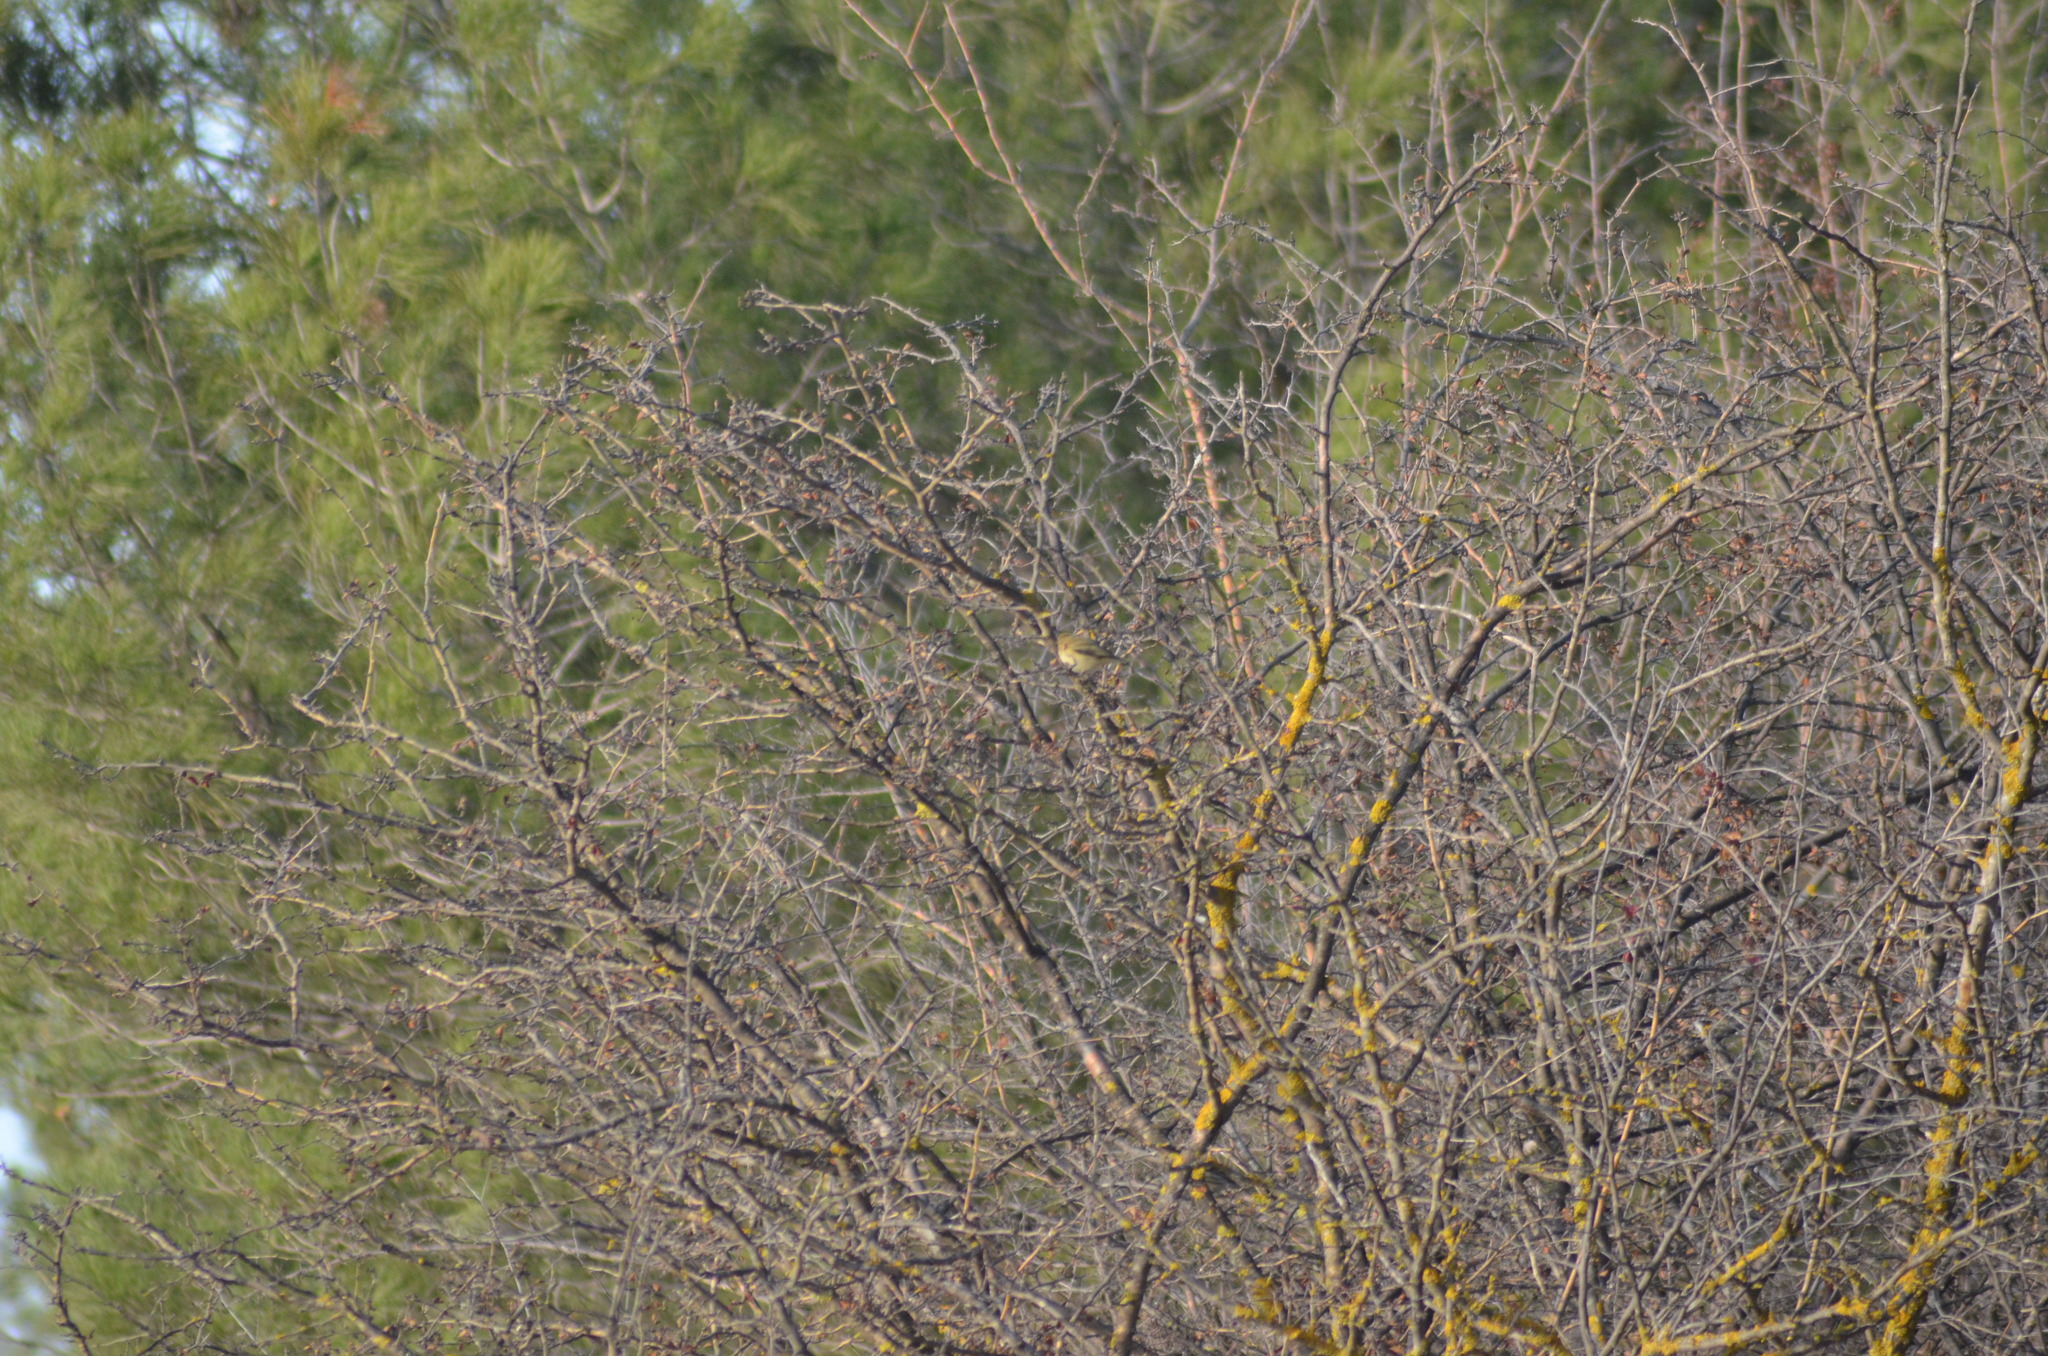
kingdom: Animalia
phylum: Chordata
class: Aves
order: Passeriformes
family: Phylloscopidae
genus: Phylloscopus
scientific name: Phylloscopus collybita
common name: Common chiffchaff
